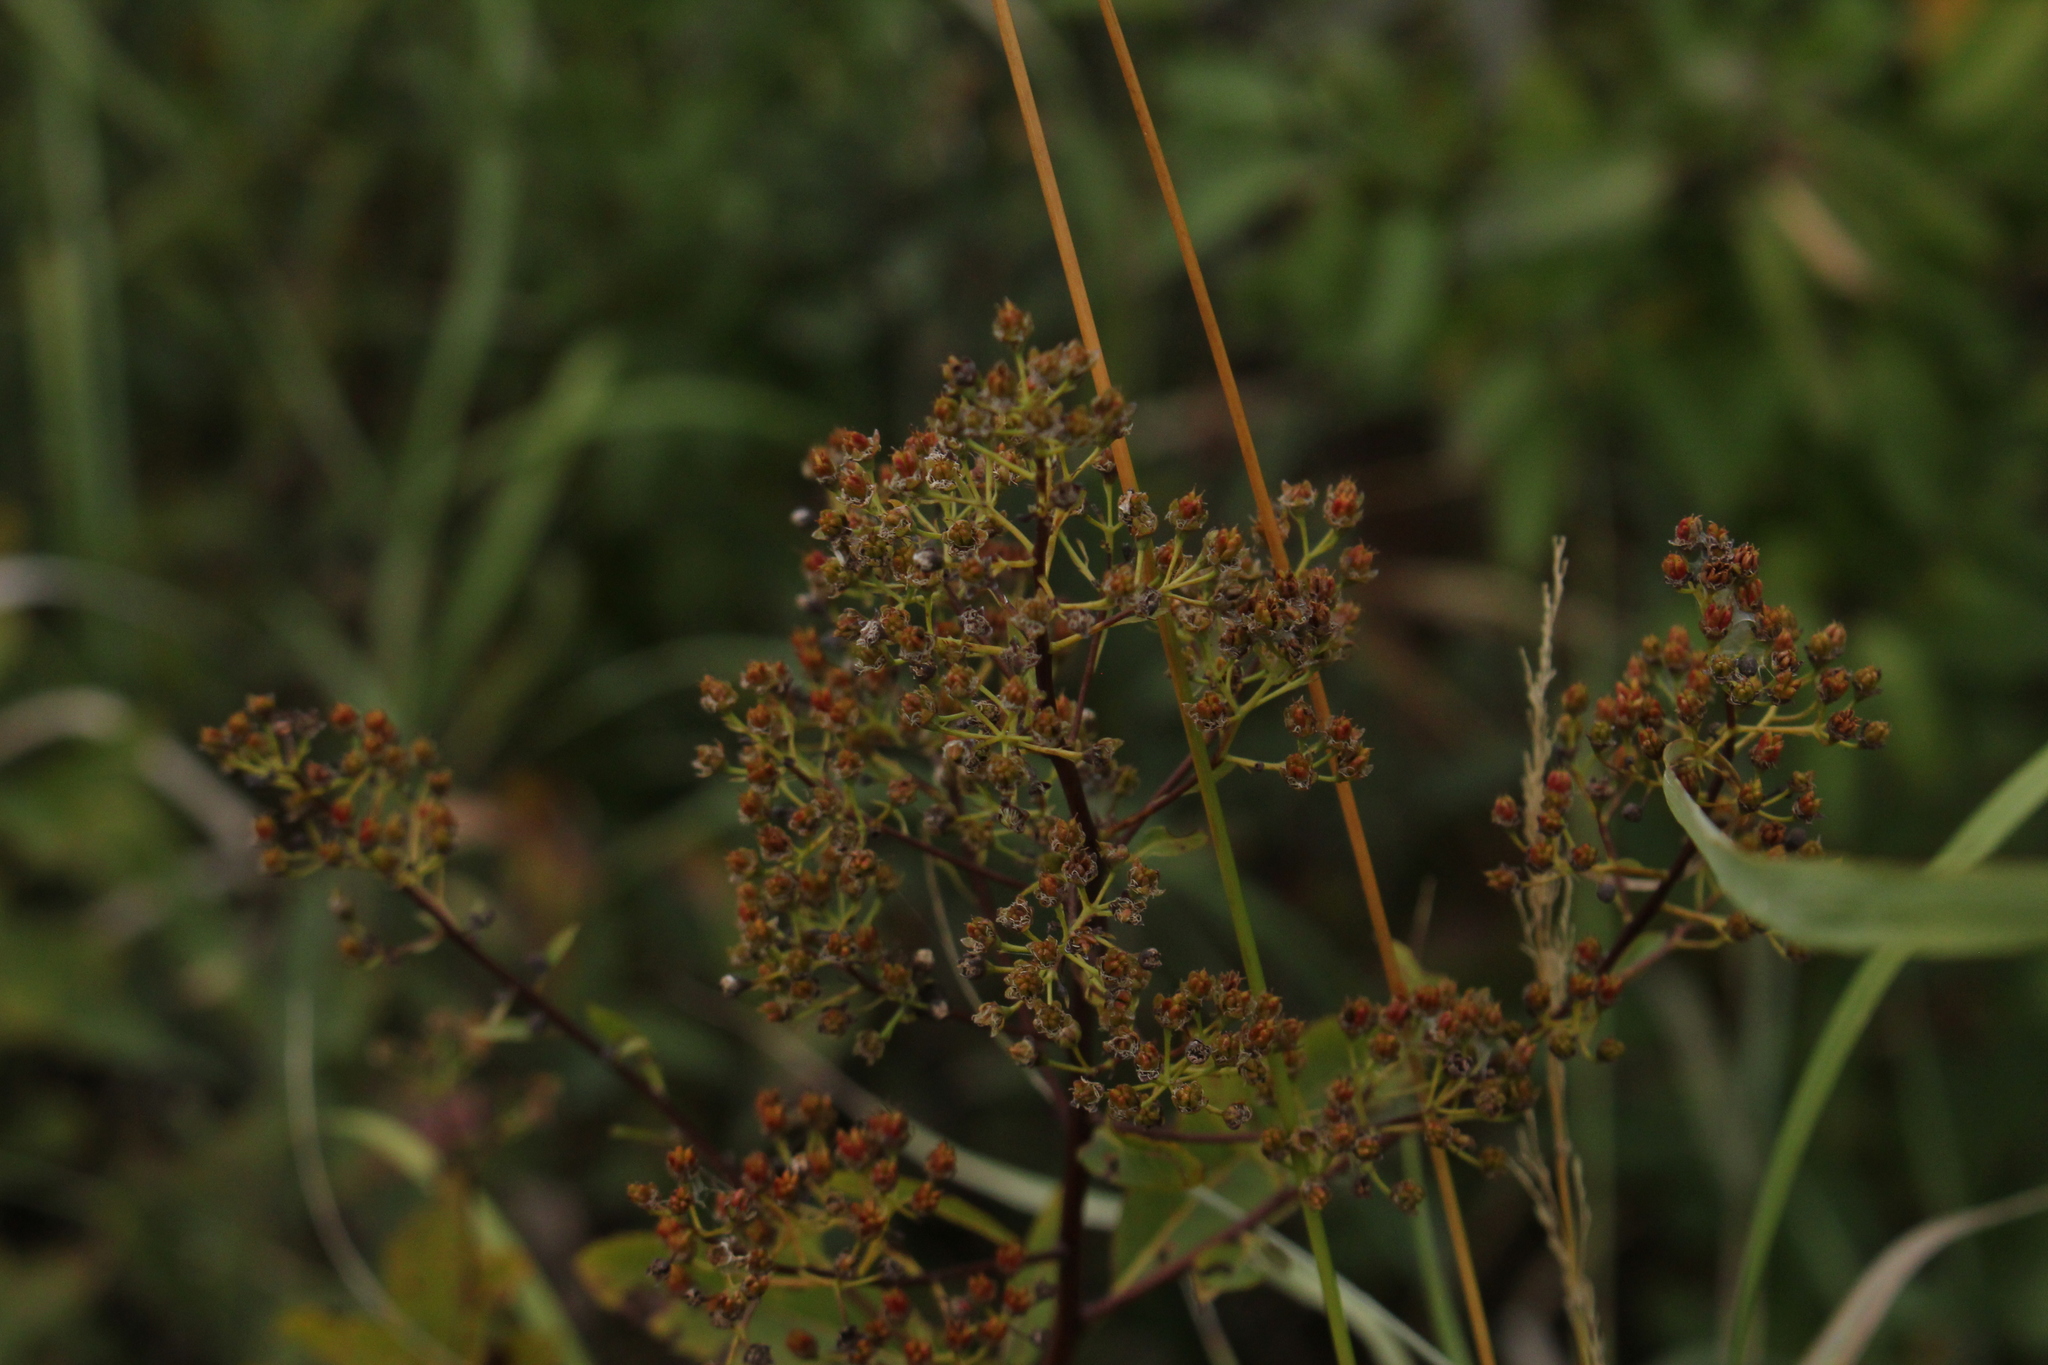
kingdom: Plantae
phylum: Tracheophyta
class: Magnoliopsida
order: Rosales
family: Rosaceae
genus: Spiraea
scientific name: Spiraea alba
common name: Pale bridewort
